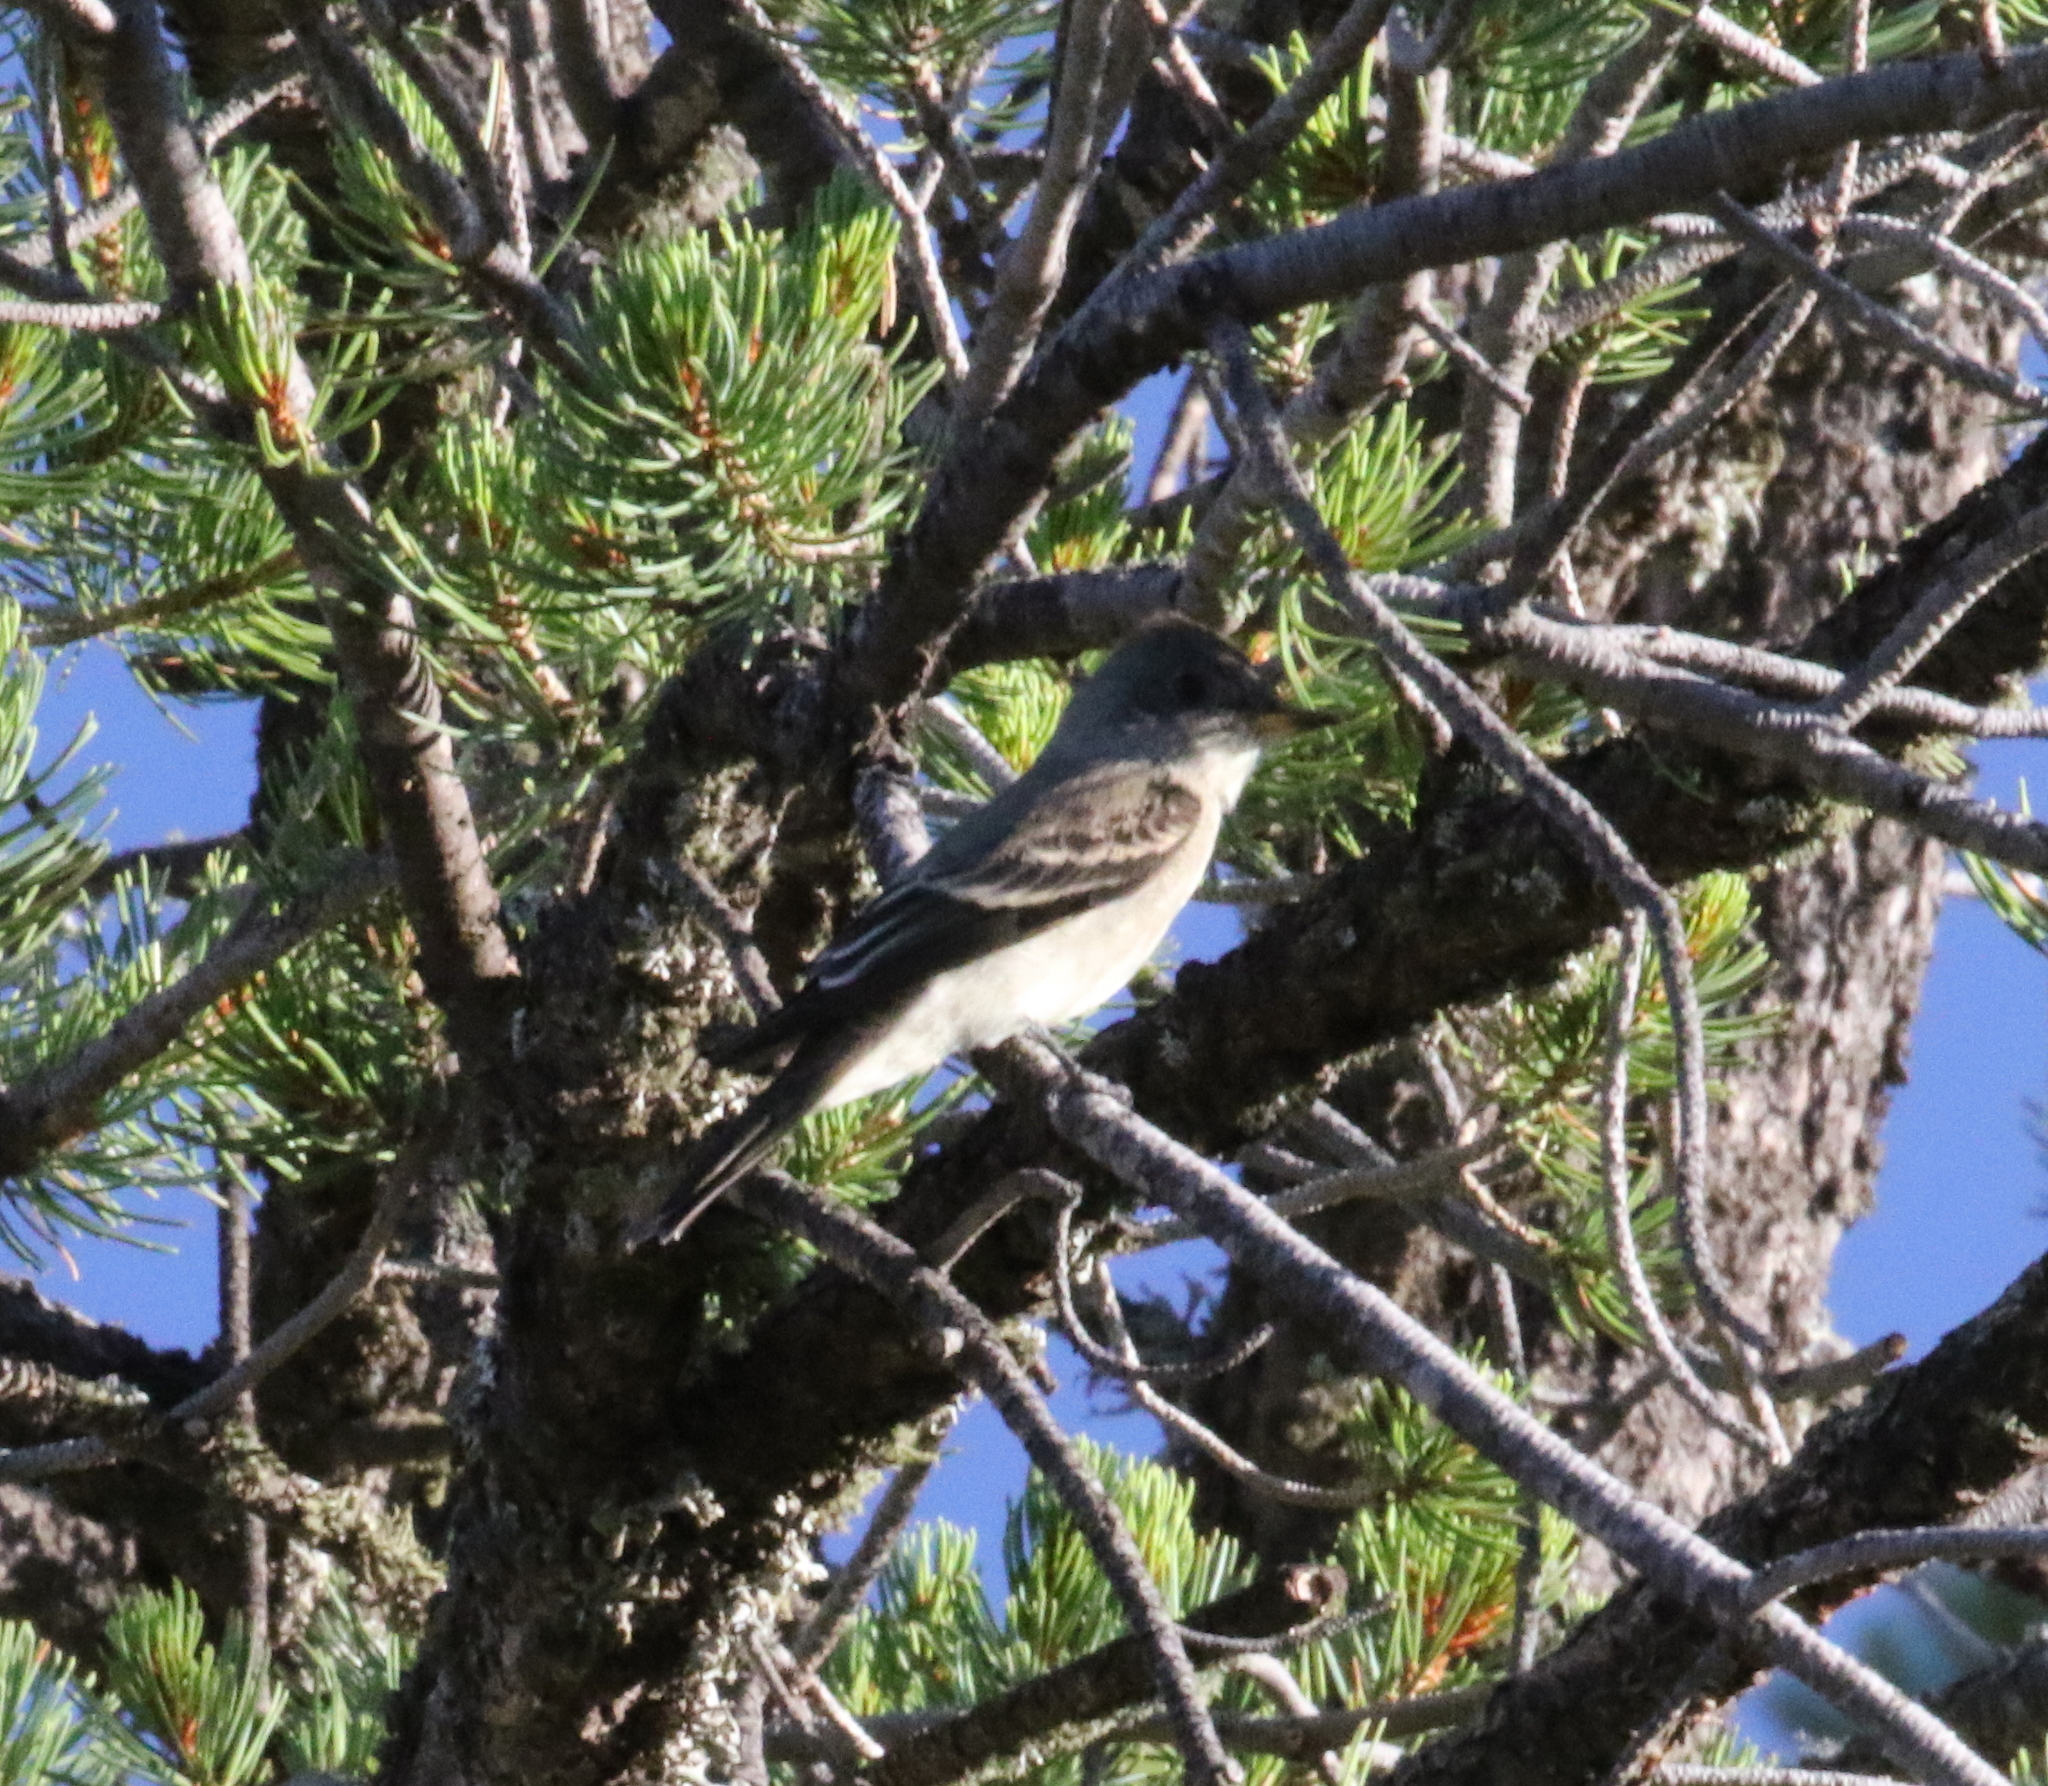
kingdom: Animalia
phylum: Chordata
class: Aves
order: Passeriformes
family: Tyrannidae
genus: Contopus
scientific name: Contopus sordidulus
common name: Western wood-pewee
